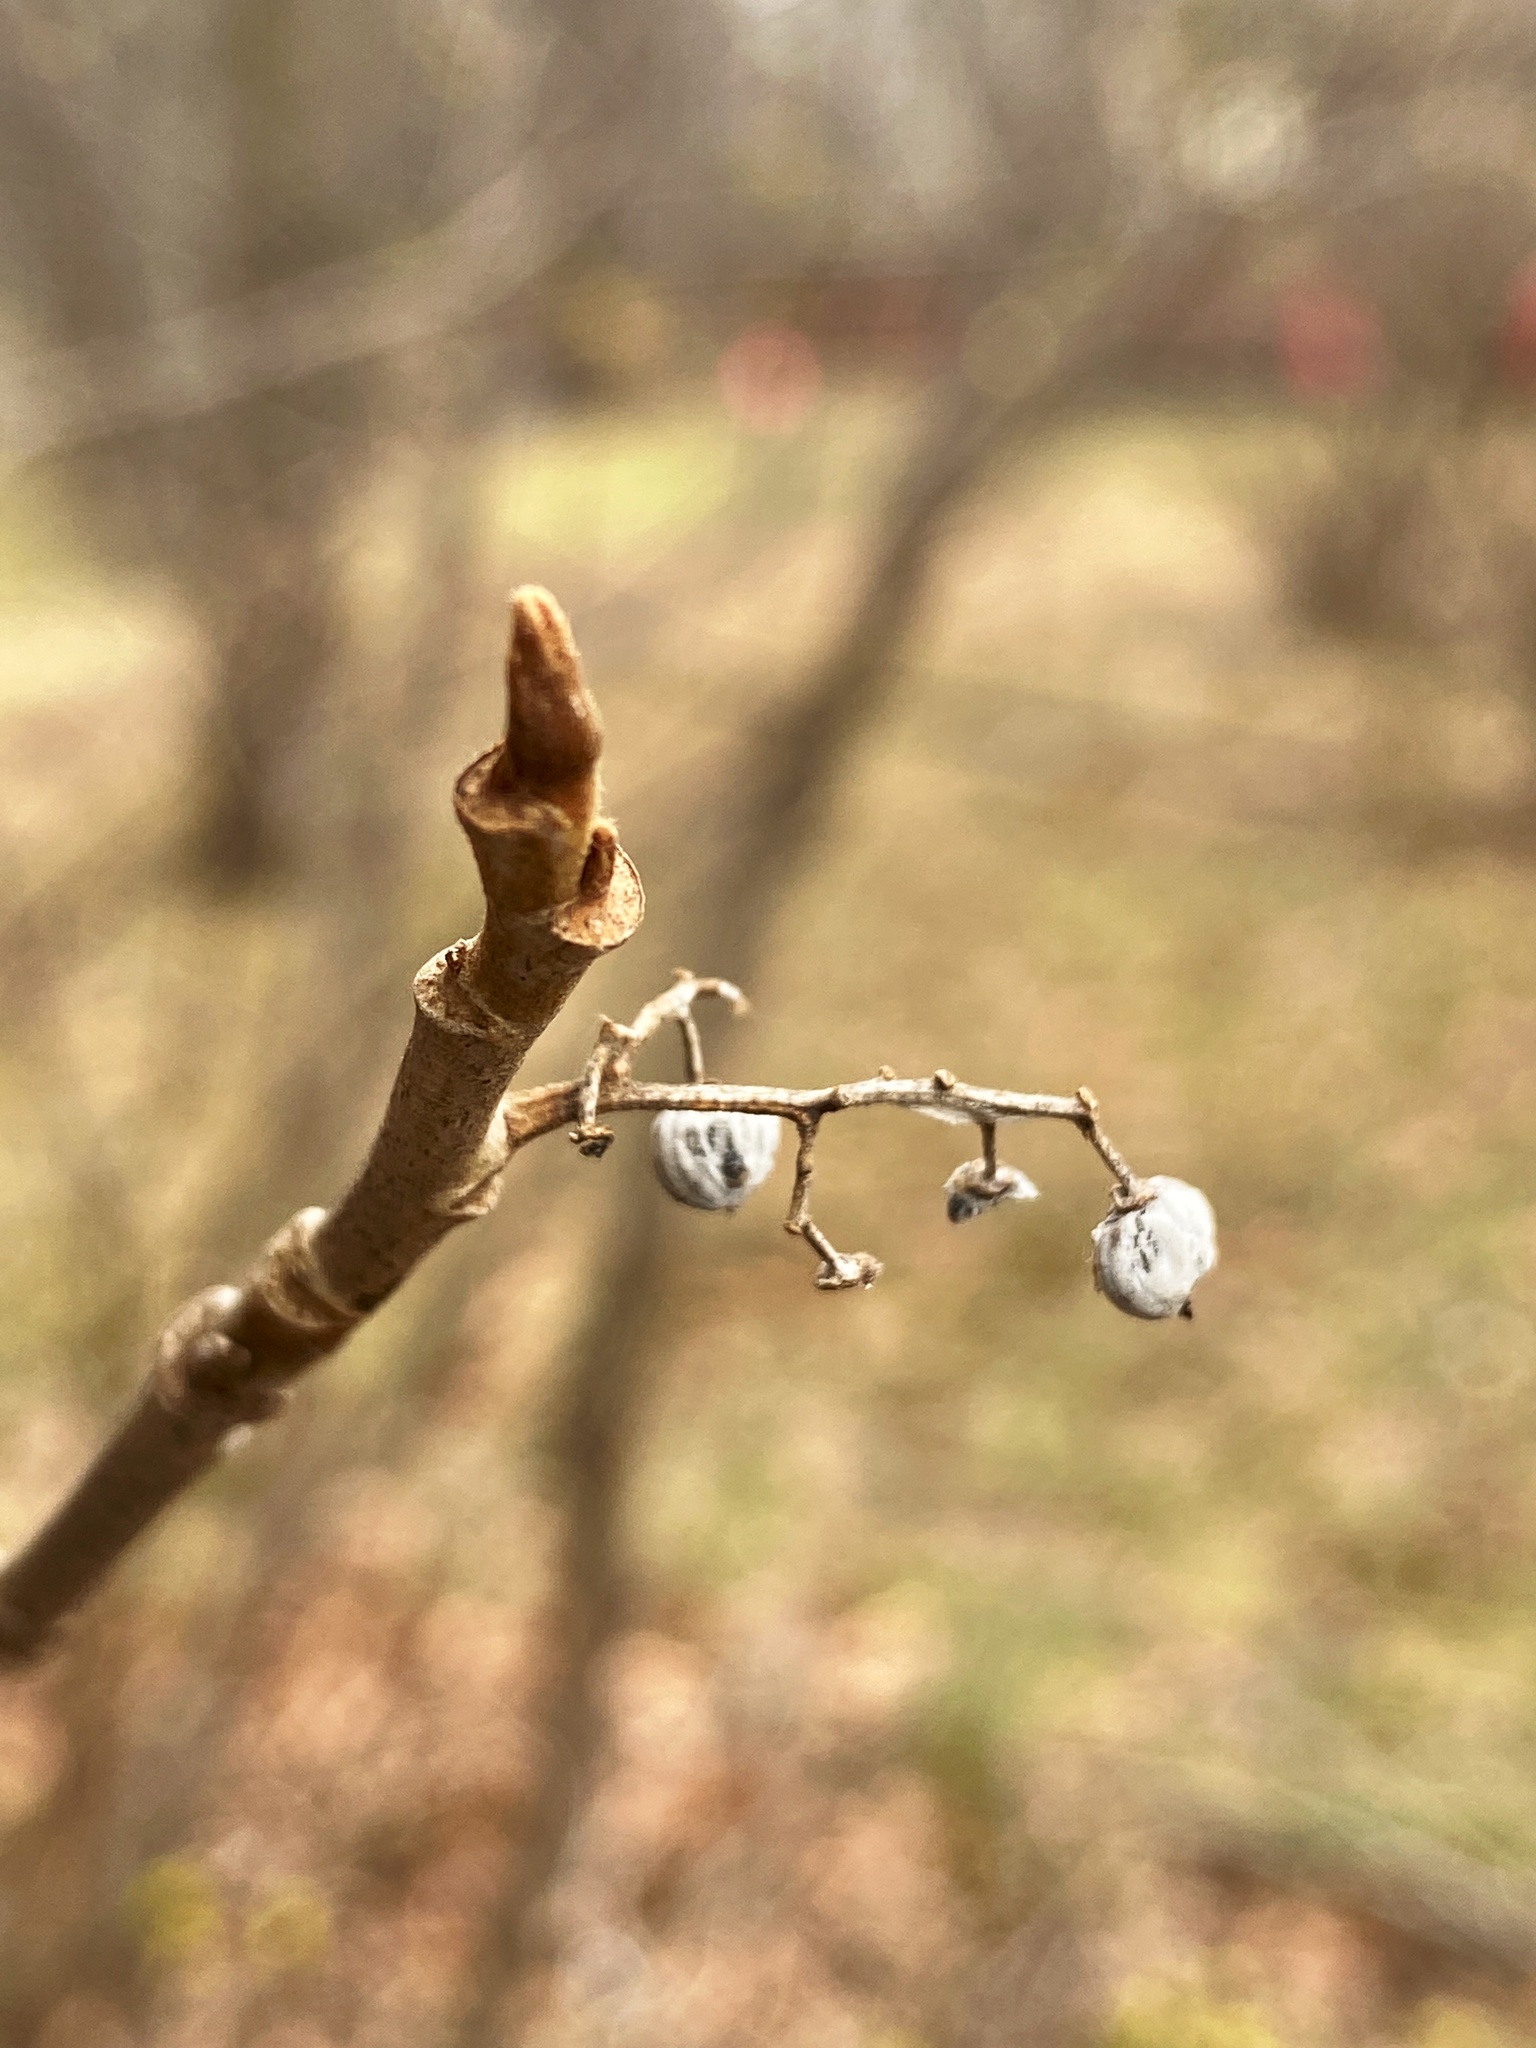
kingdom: Plantae
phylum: Tracheophyta
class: Magnoliopsida
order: Sapindales
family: Anacardiaceae
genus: Toxicodendron
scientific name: Toxicodendron radicans
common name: Poison ivy
